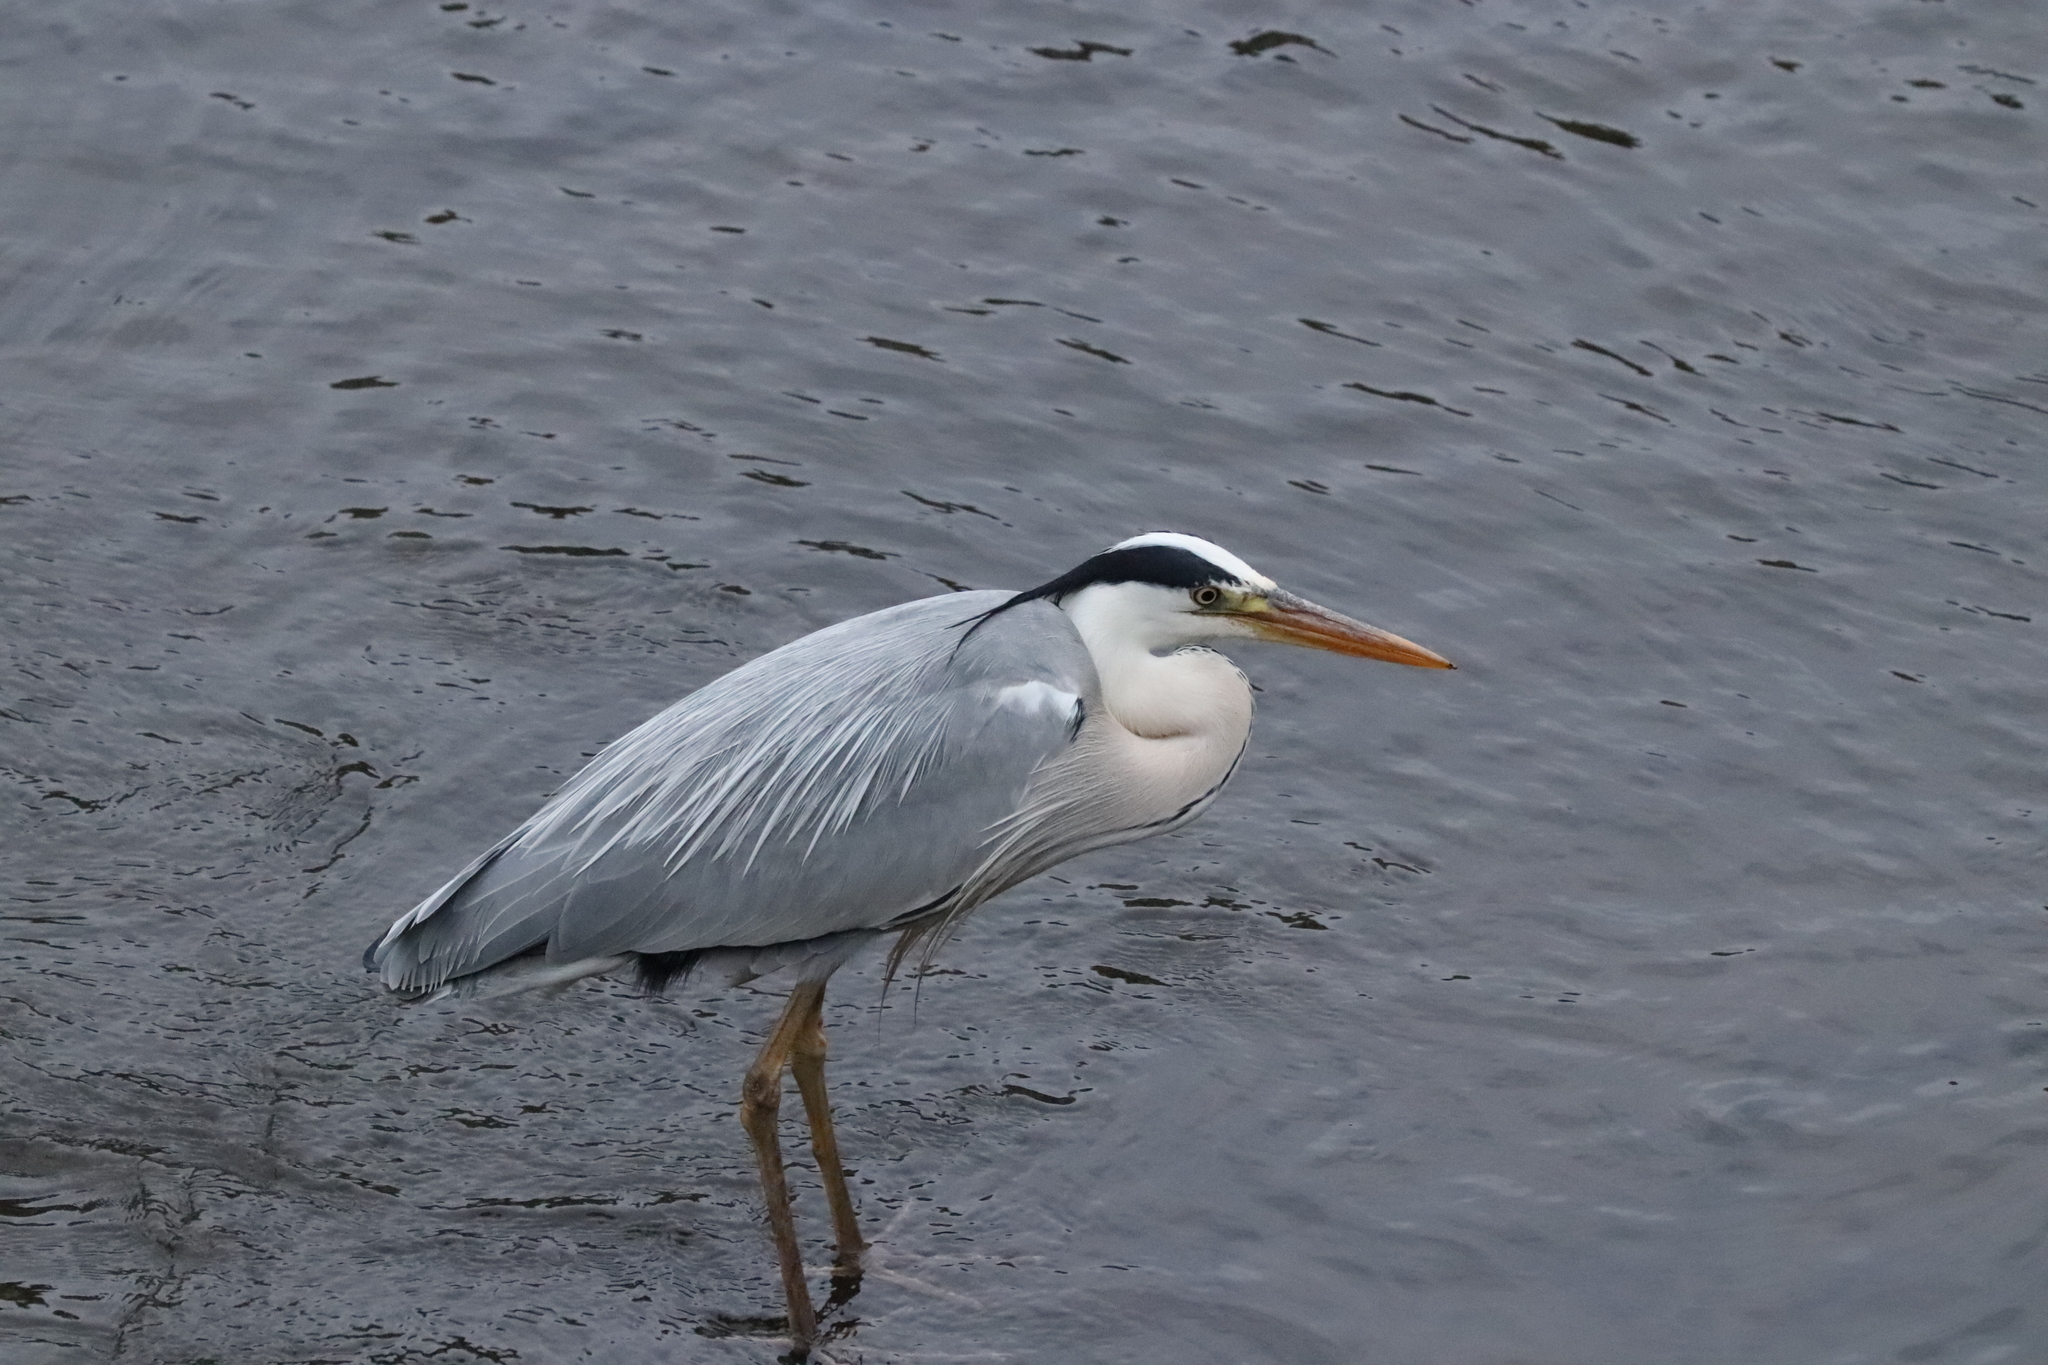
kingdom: Animalia
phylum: Chordata
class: Aves
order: Pelecaniformes
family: Ardeidae
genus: Ardea
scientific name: Ardea cinerea
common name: Grey heron
